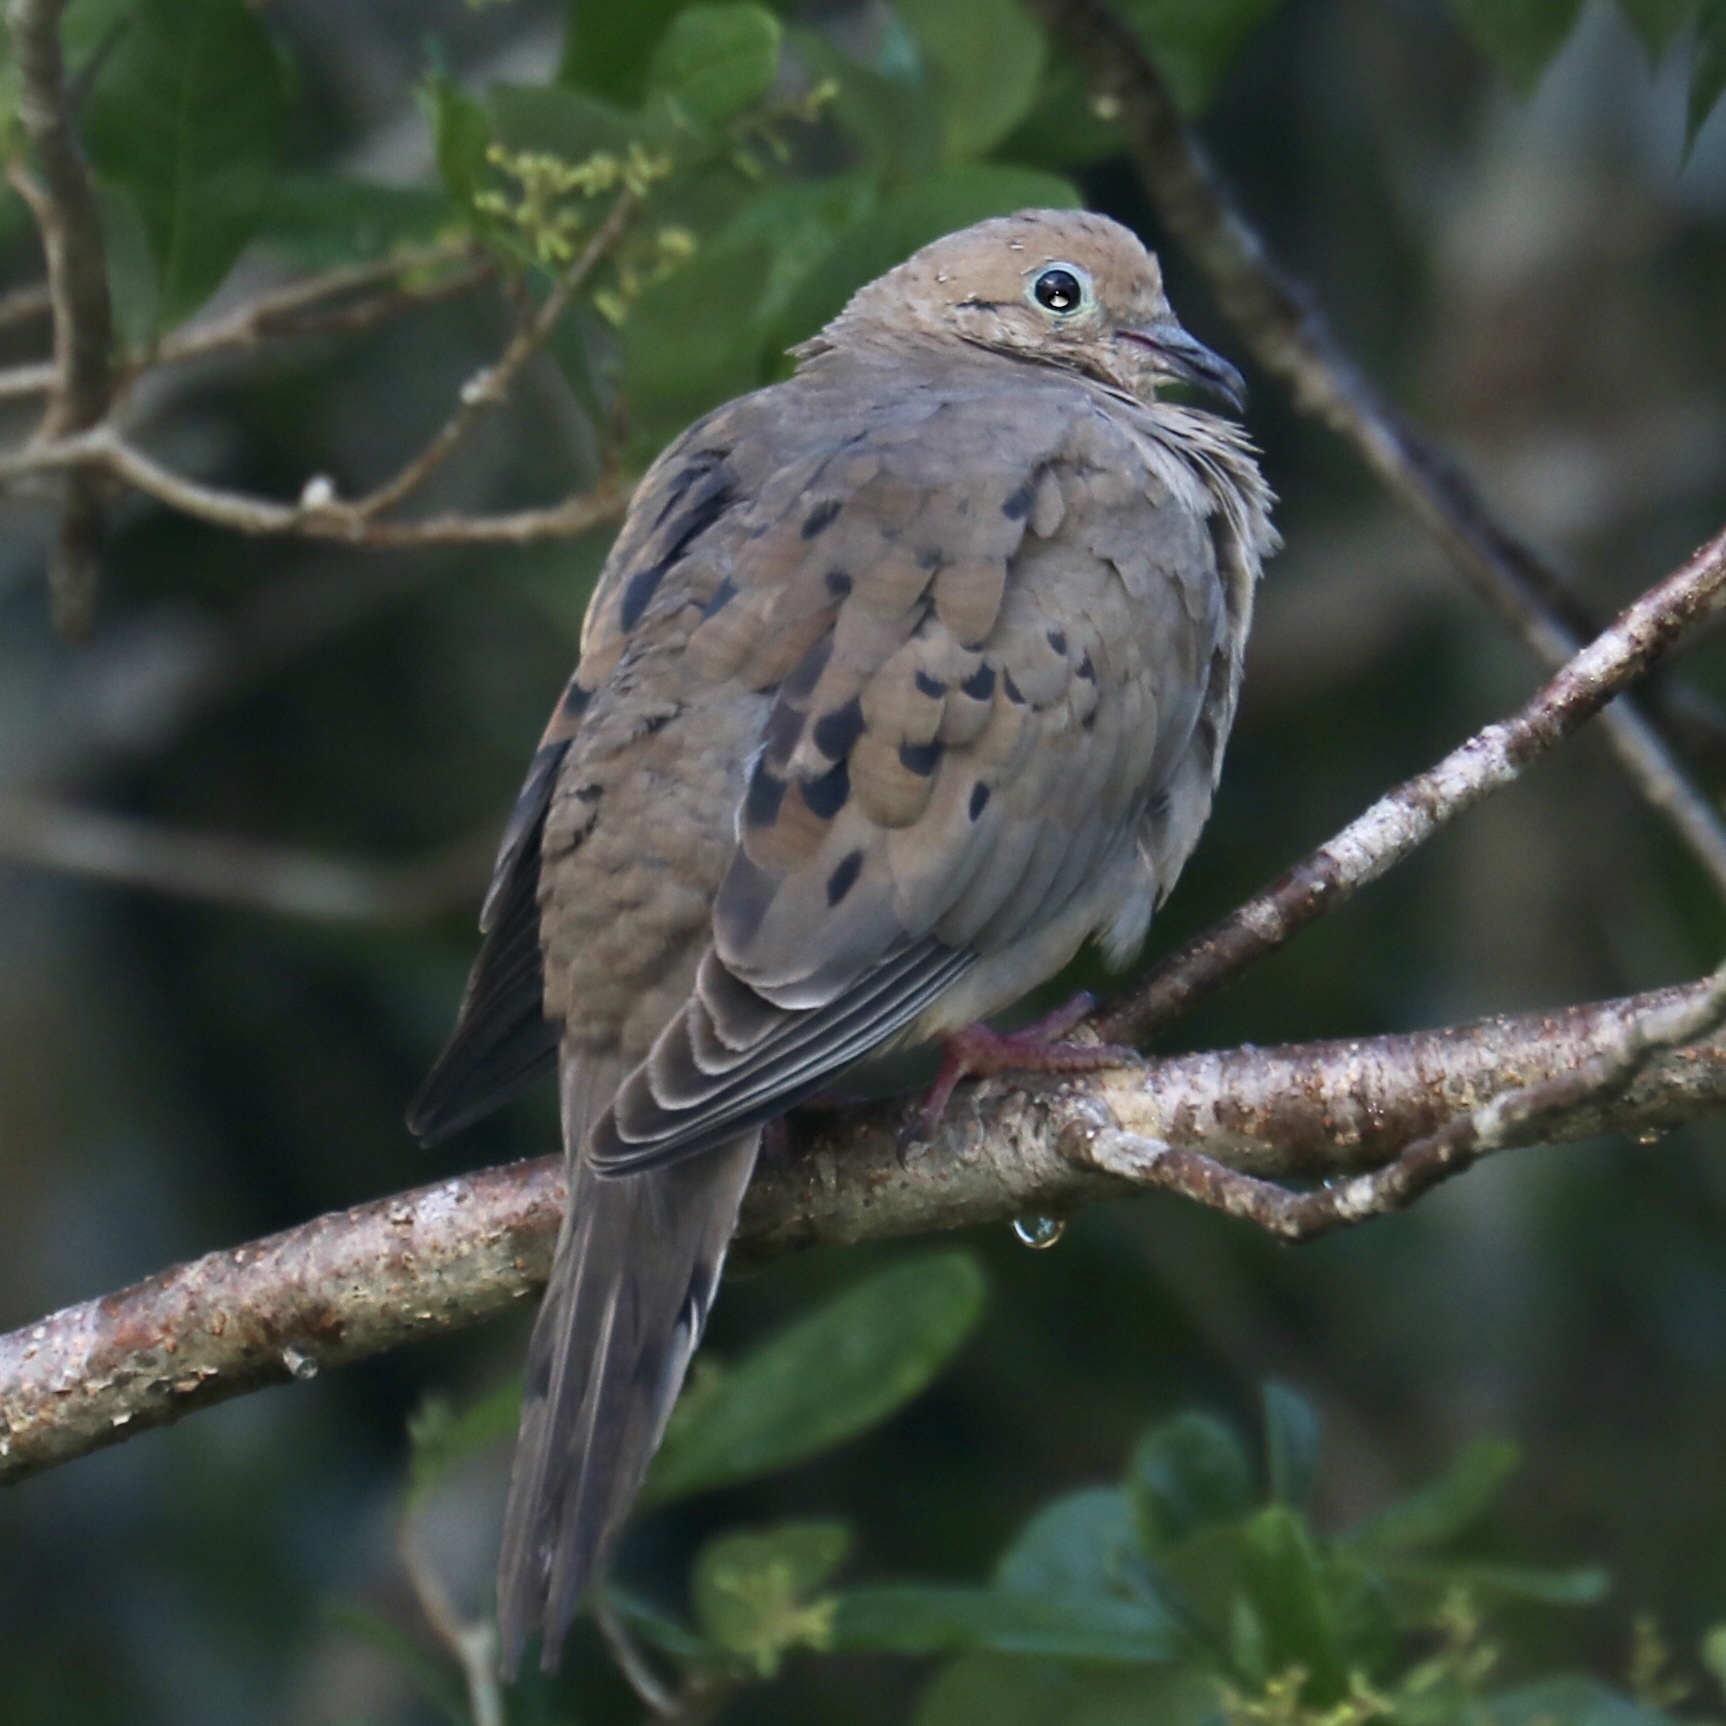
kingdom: Animalia
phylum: Chordata
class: Aves
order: Columbiformes
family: Columbidae
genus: Zenaida
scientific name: Zenaida macroura
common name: Mourning dove
